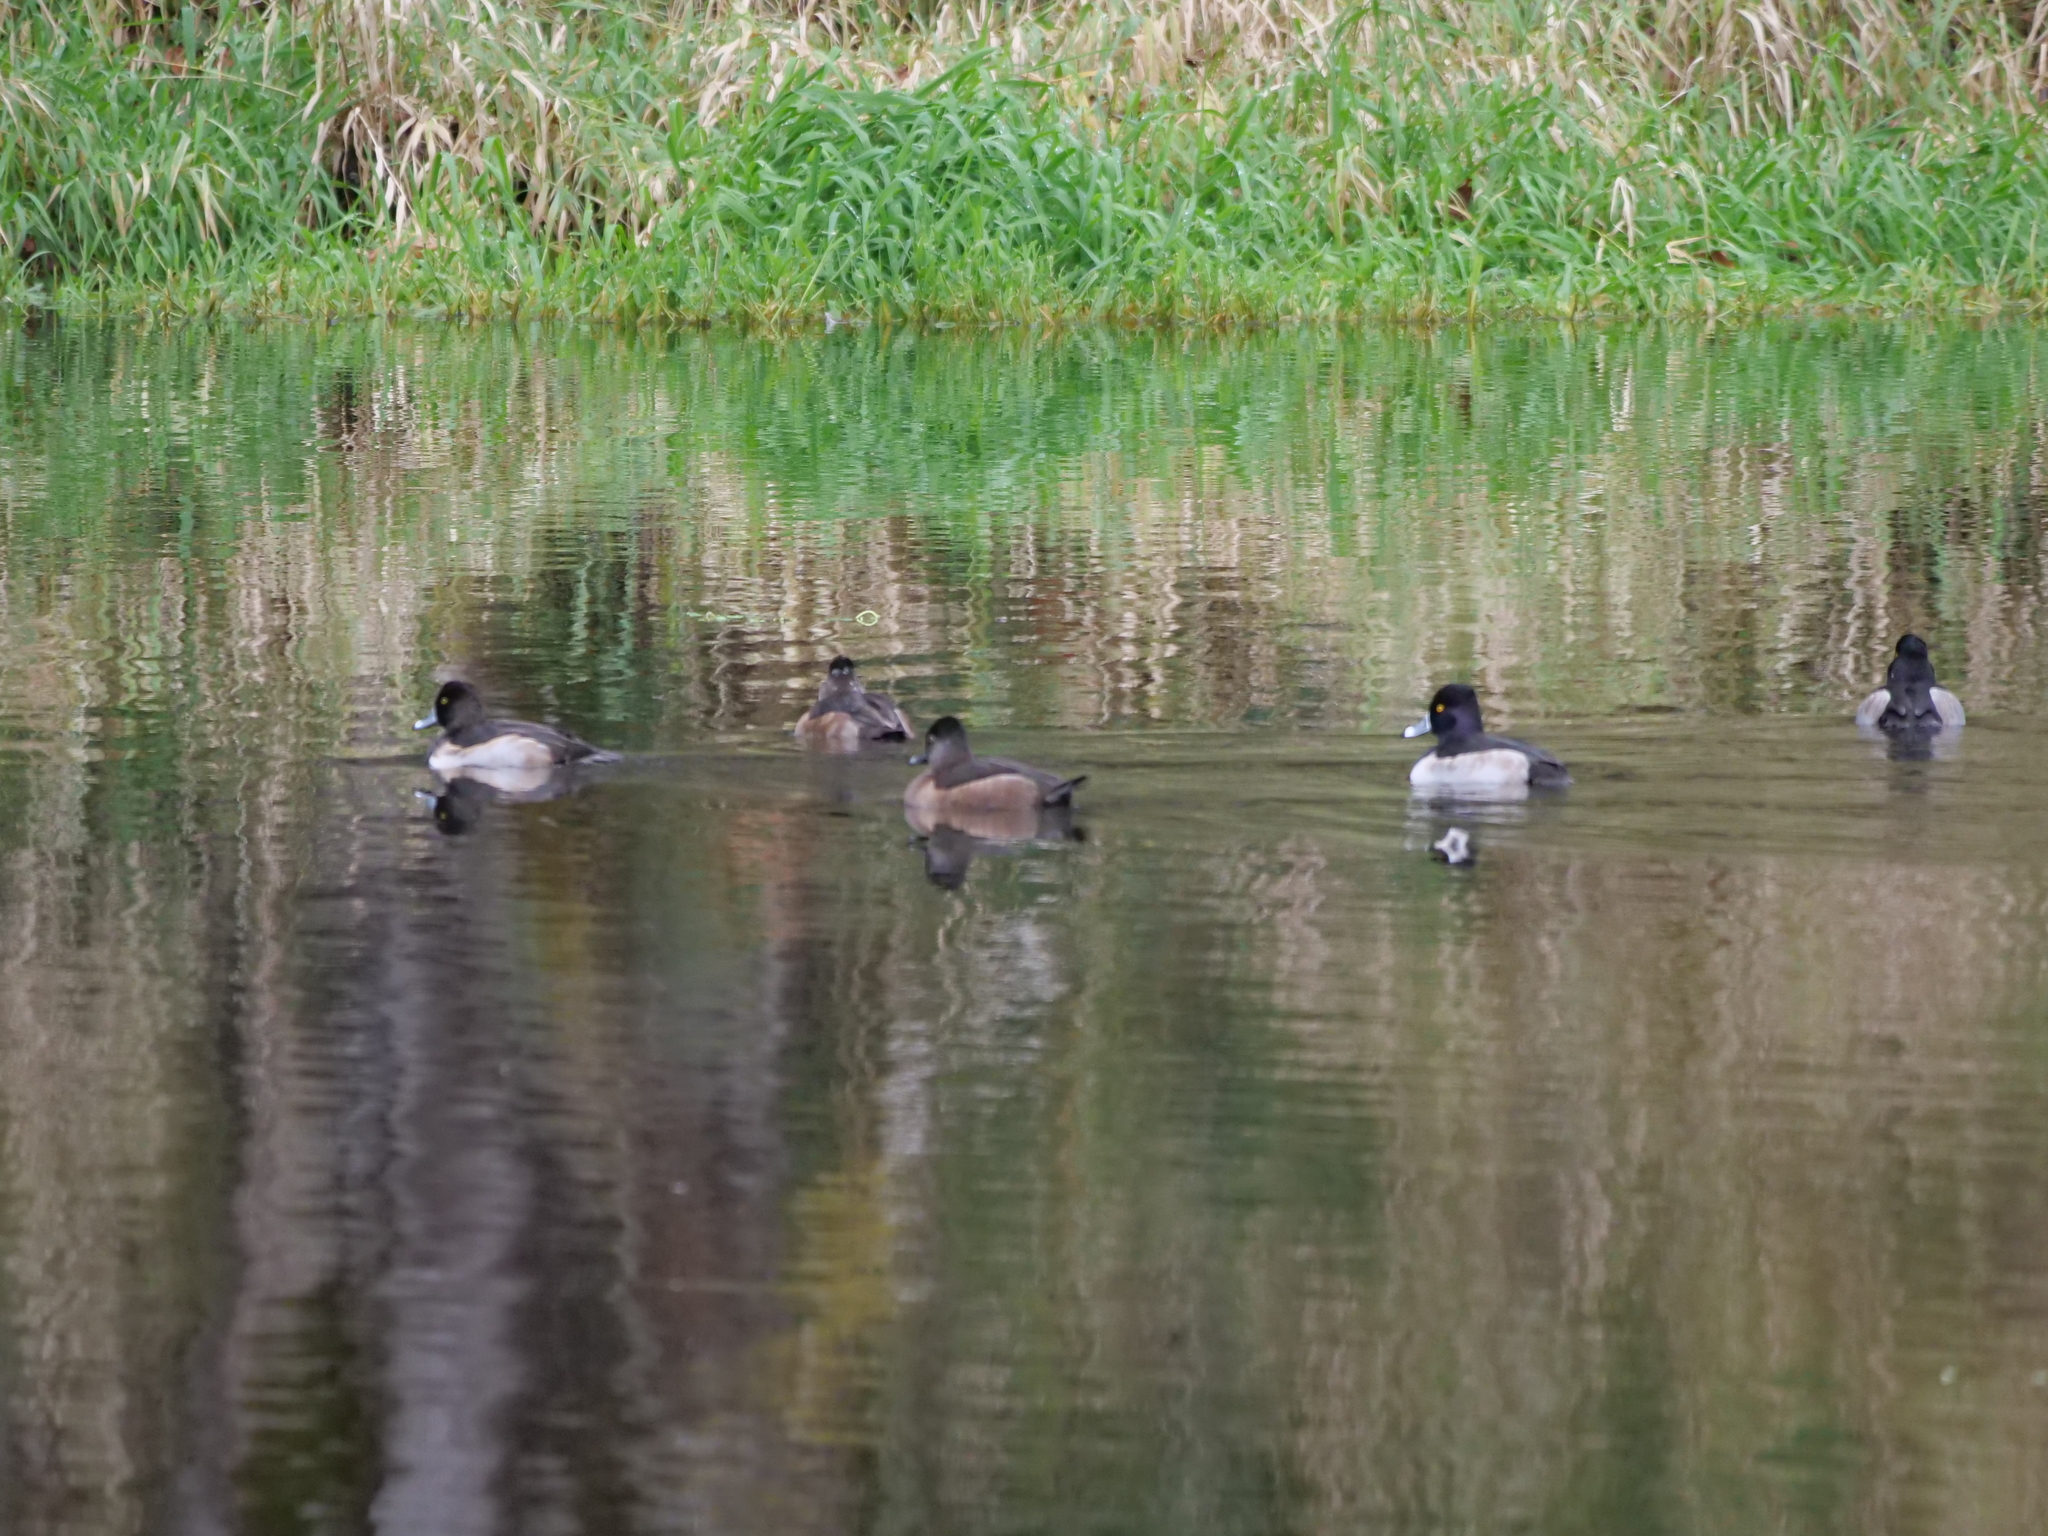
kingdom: Animalia
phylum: Chordata
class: Aves
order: Anseriformes
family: Anatidae
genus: Aythya
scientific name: Aythya collaris
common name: Ring-necked duck
